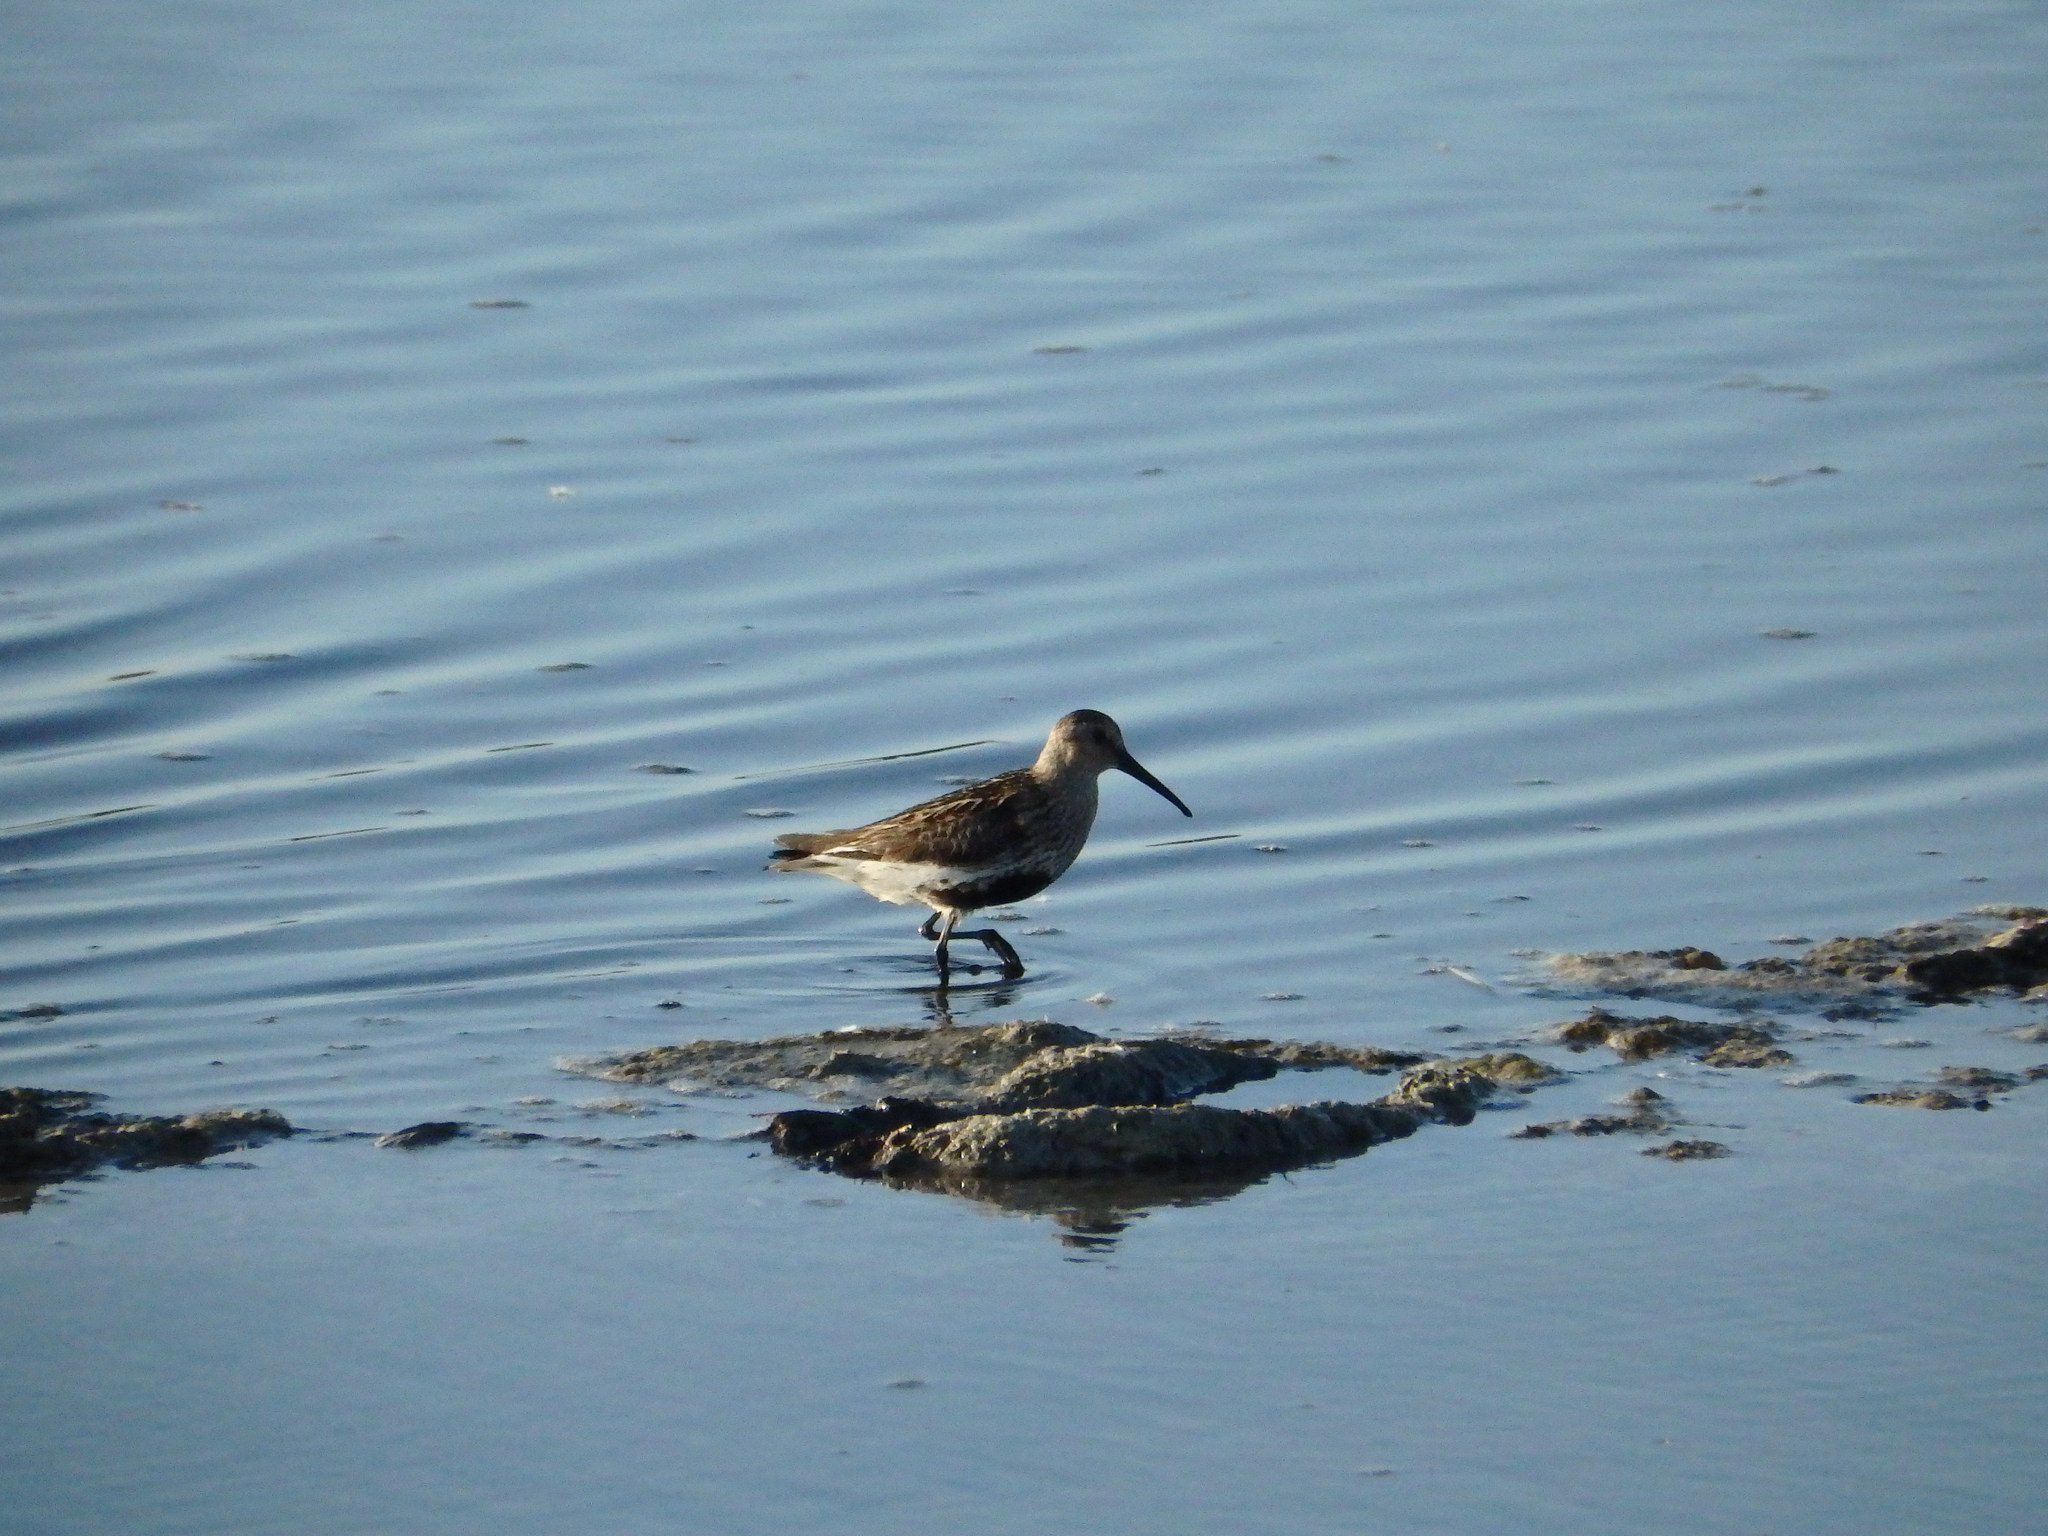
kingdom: Animalia
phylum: Chordata
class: Aves
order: Charadriiformes
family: Scolopacidae
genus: Calidris
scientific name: Calidris alpina
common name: Dunlin
